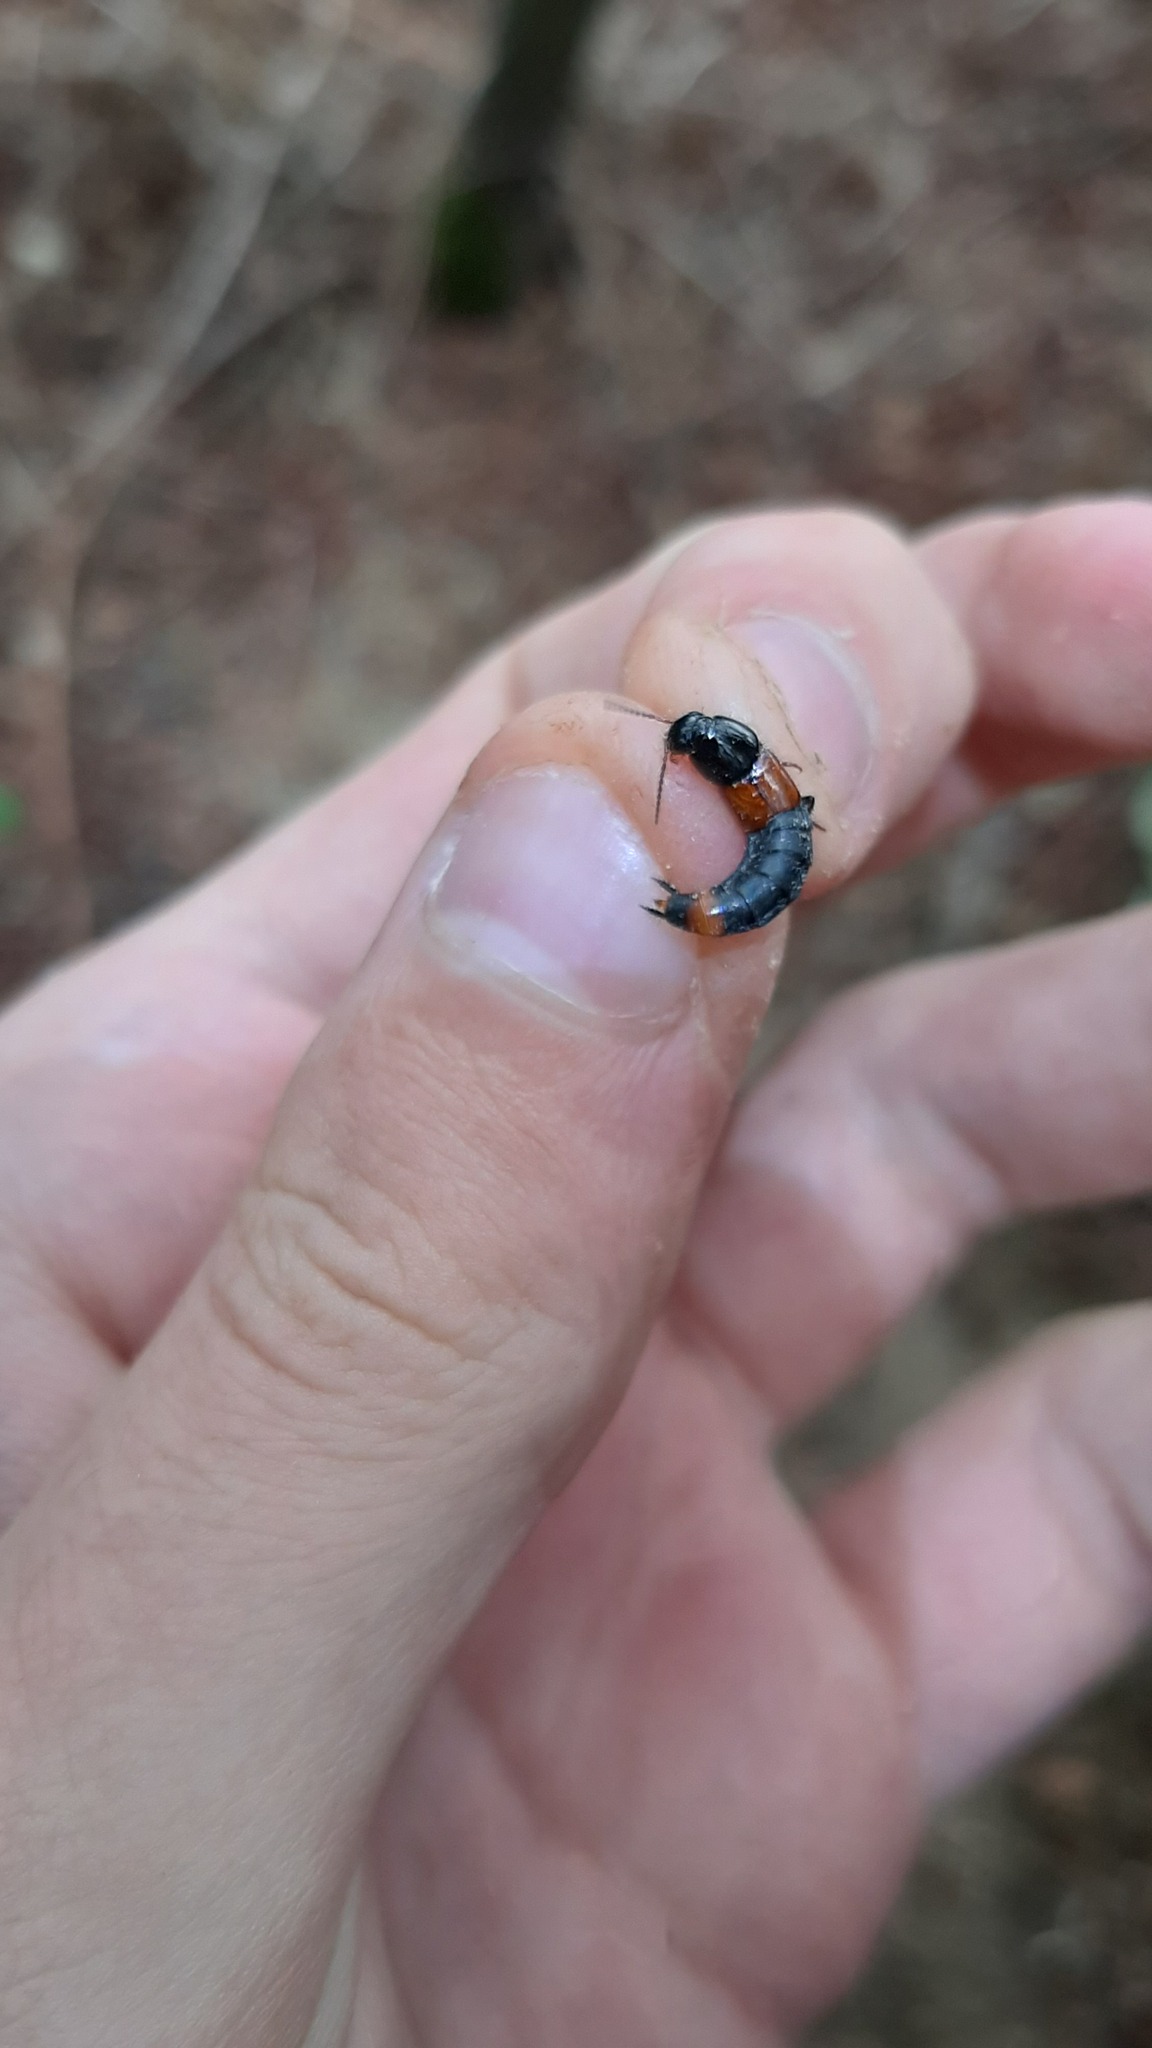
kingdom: Animalia
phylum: Arthropoda
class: Insecta
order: Coleoptera
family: Staphylinidae
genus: Astrapaeus
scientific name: Astrapaeus ulmi
